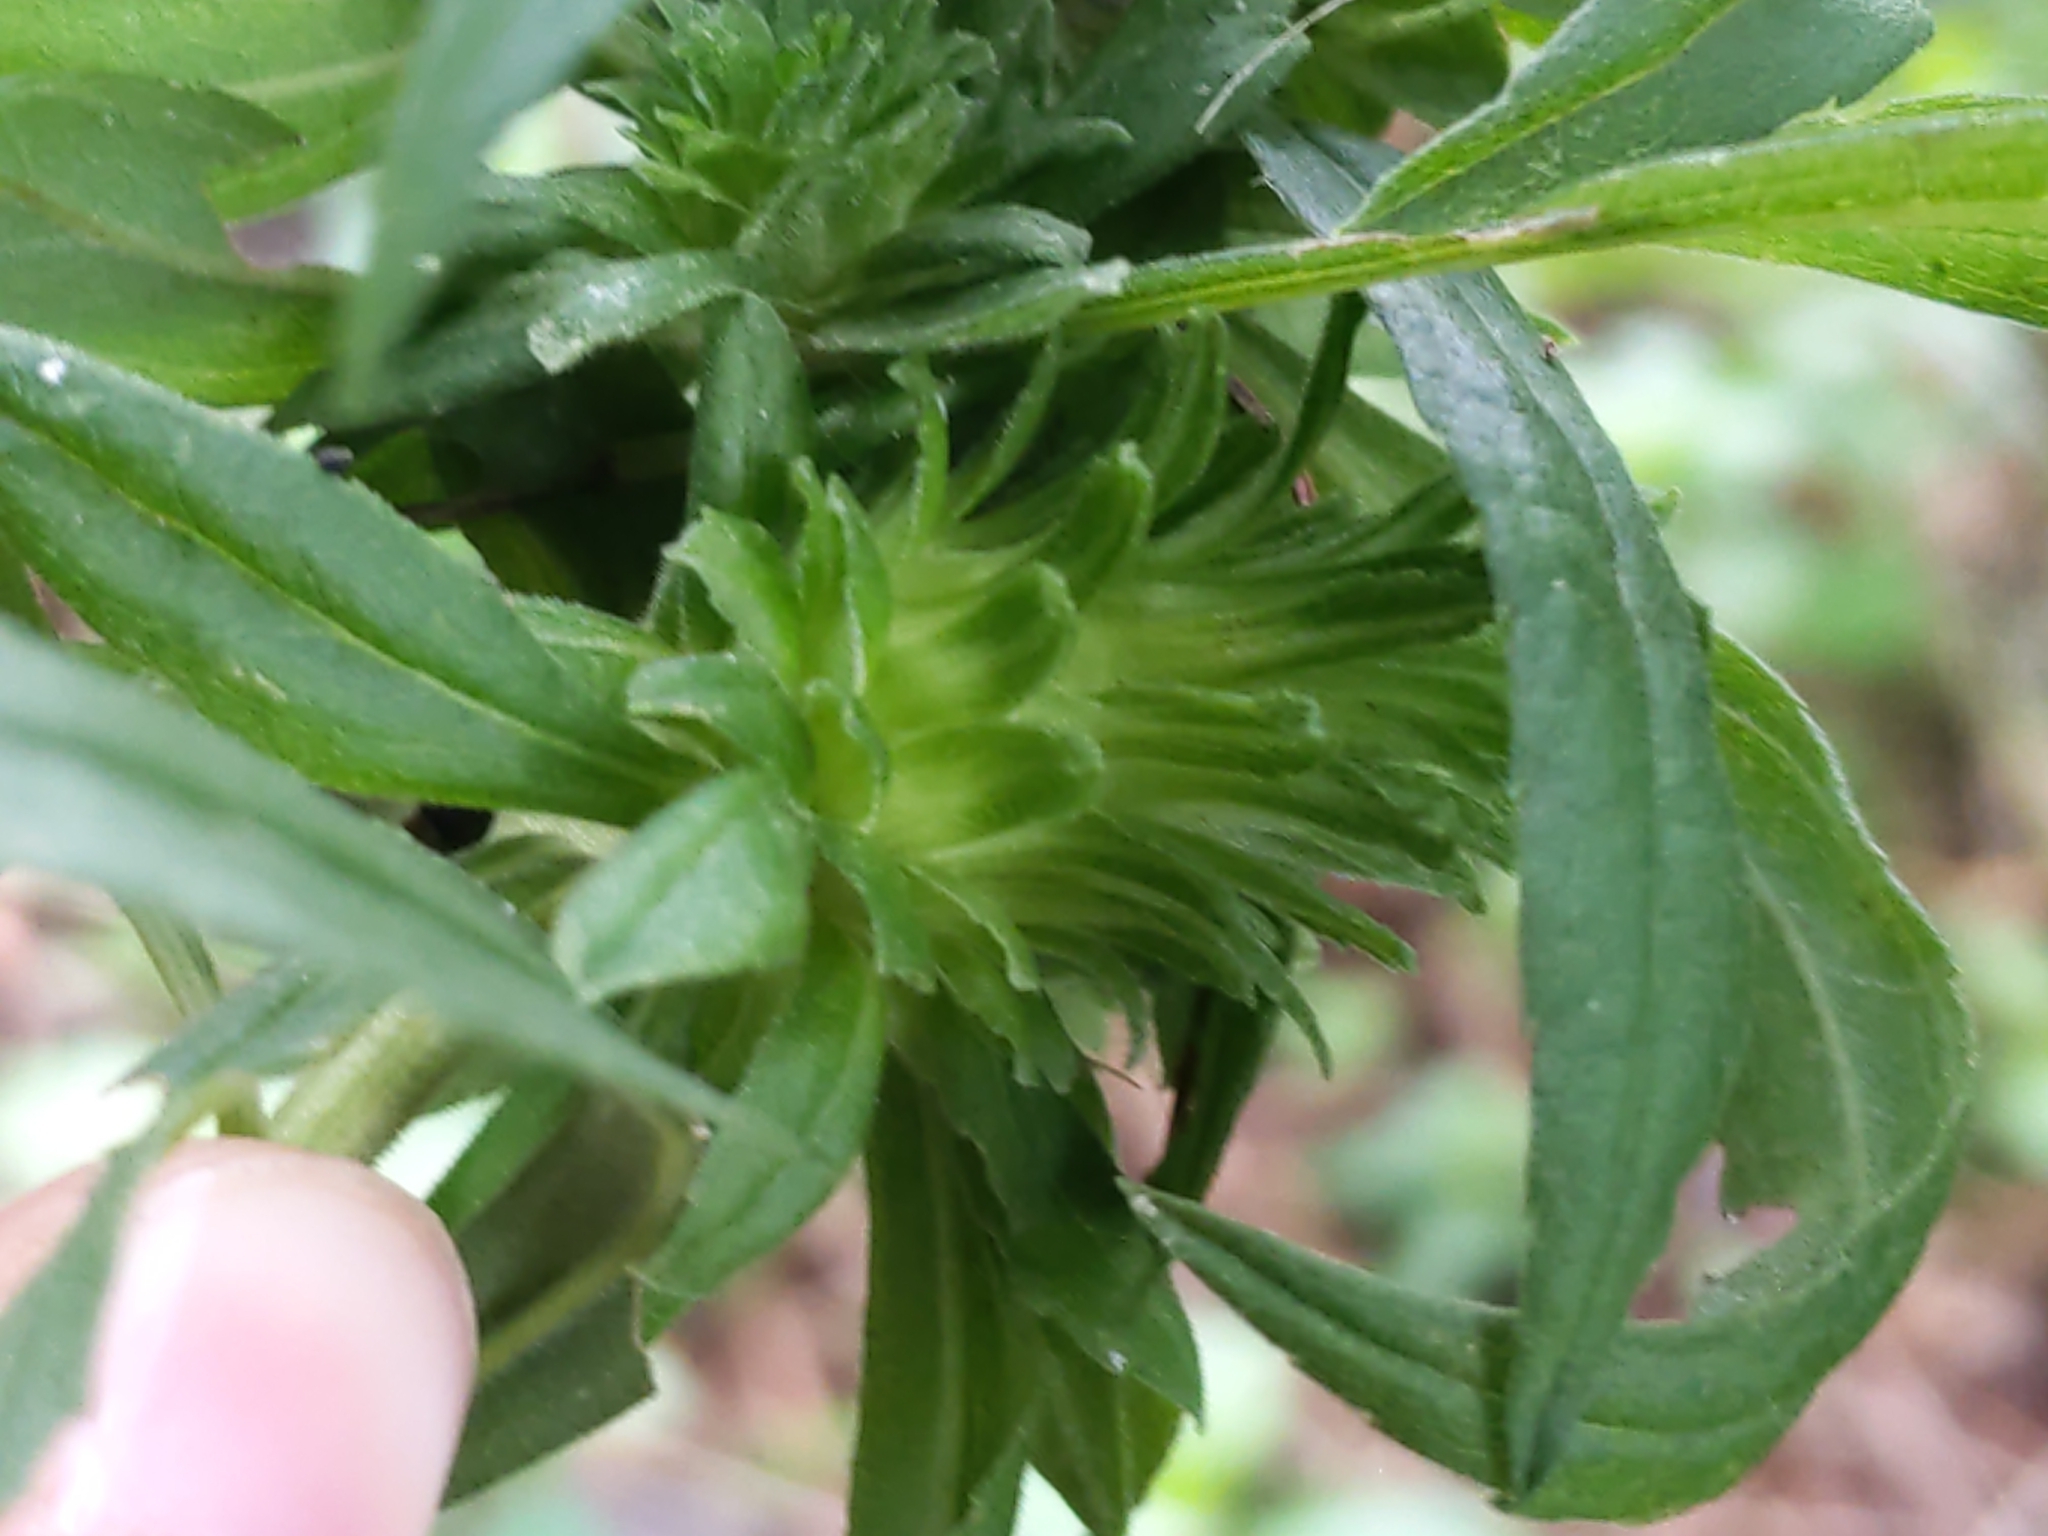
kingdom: Animalia
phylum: Arthropoda
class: Insecta
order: Diptera
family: Tephritidae
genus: Procecidochares
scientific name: Procecidochares atra
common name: Goldenrod brussels sprout gall fly
